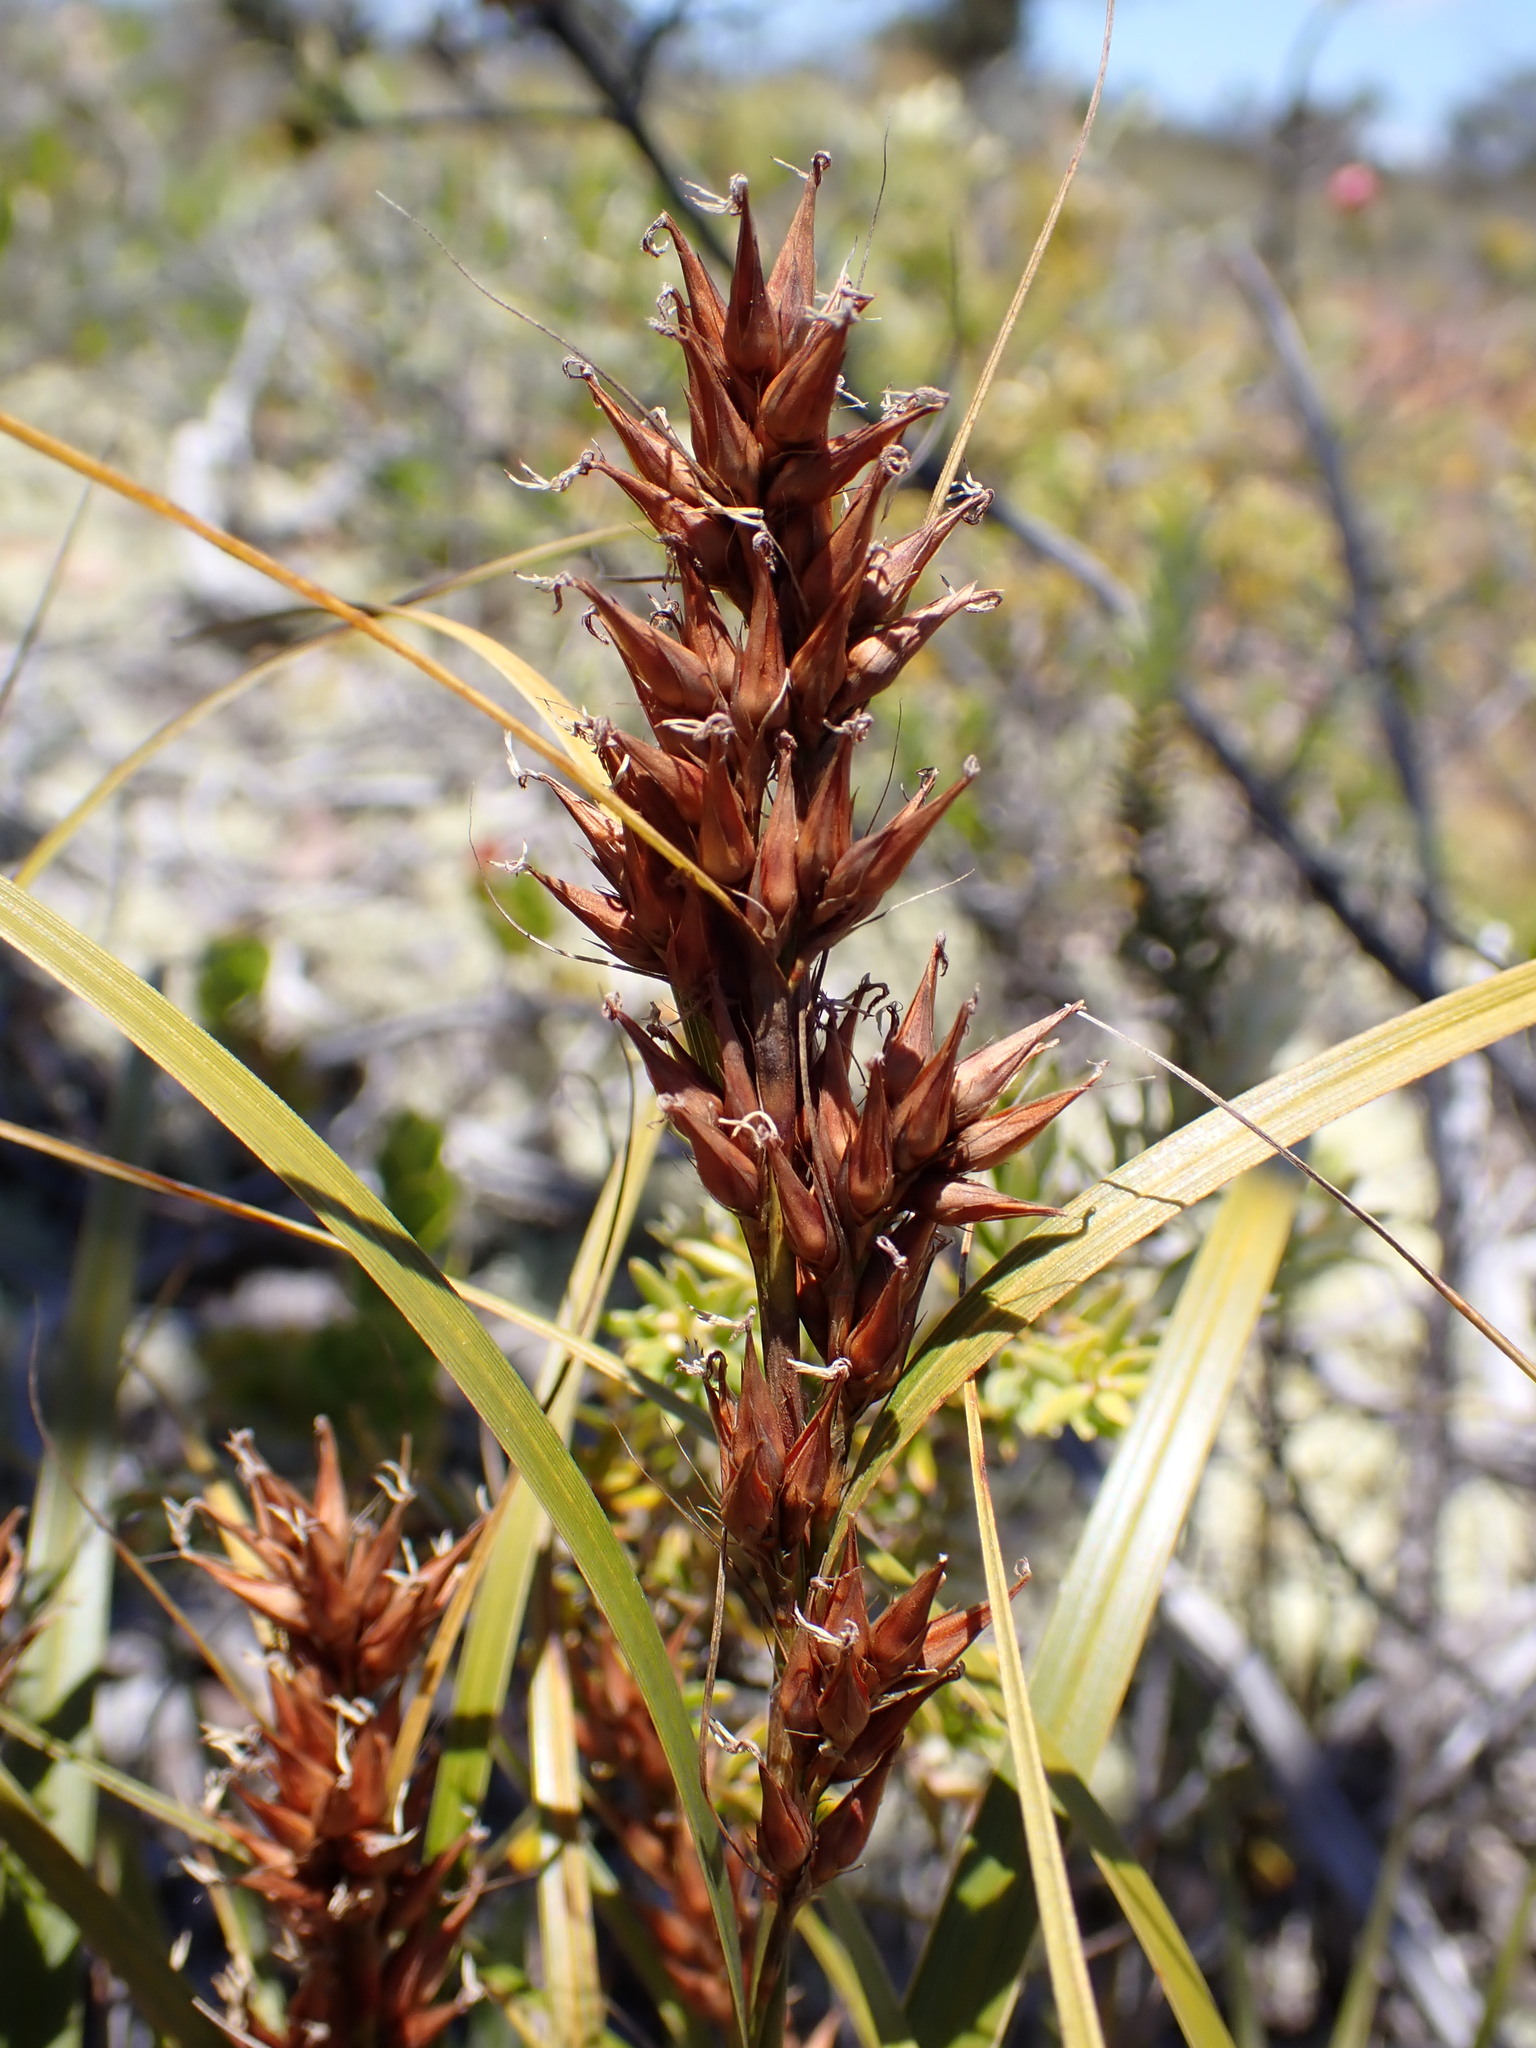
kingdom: Plantae
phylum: Tracheophyta
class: Liliopsida
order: Poales
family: Cyperaceae
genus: Morelotia
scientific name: Morelotia gahniiformis
